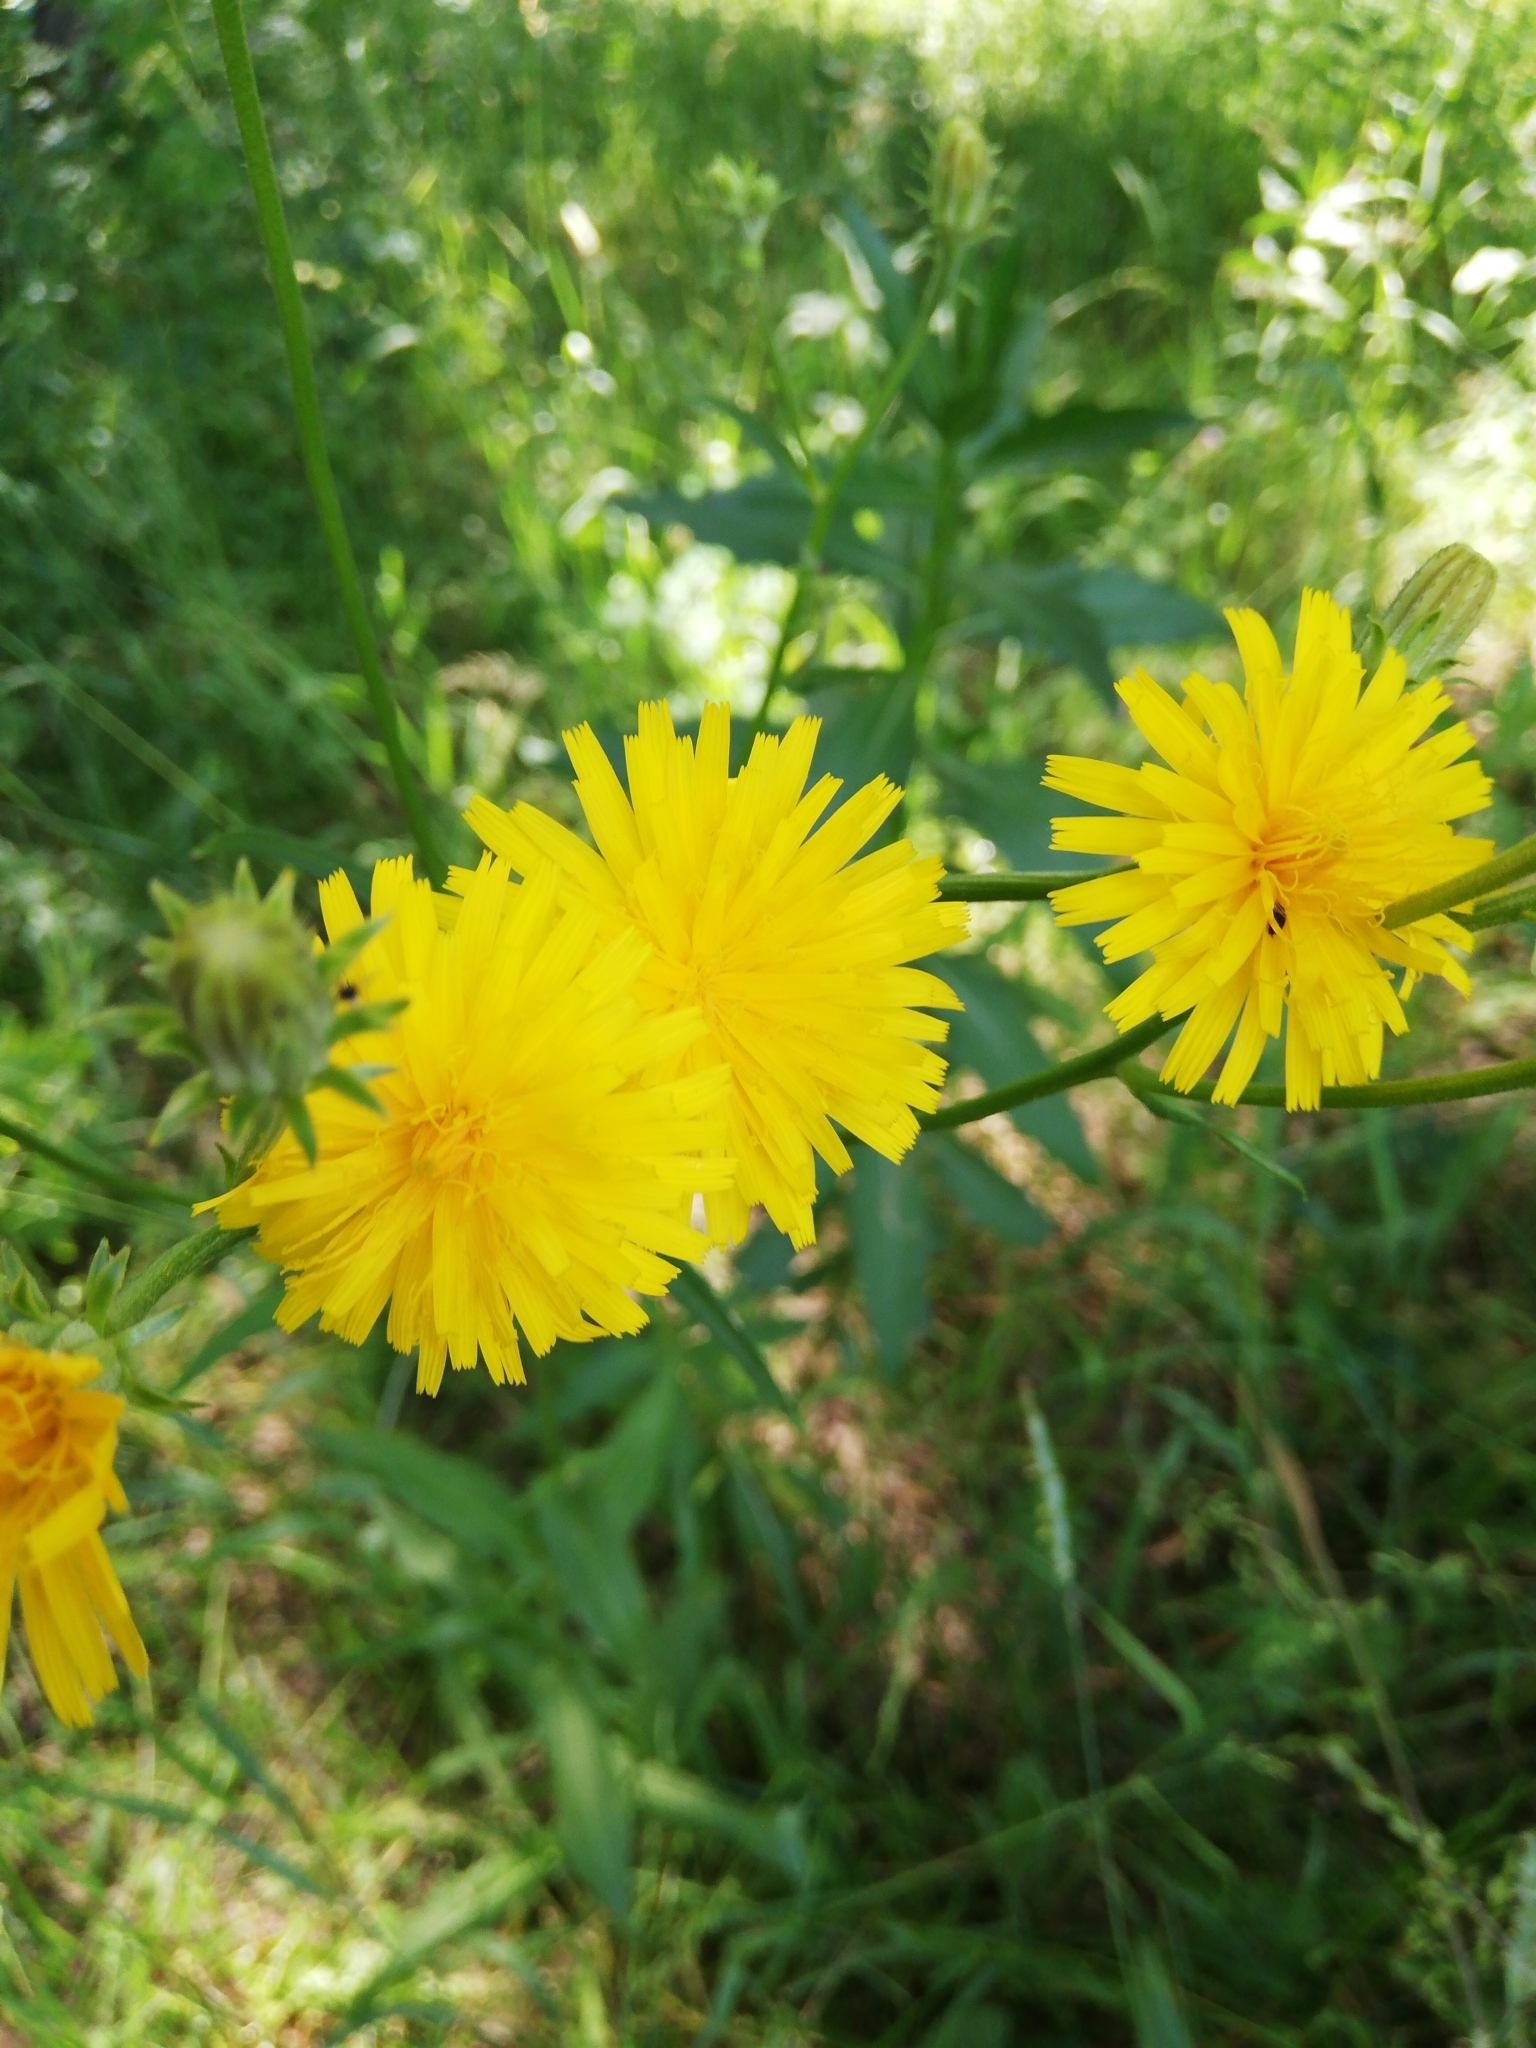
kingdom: Plantae
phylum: Tracheophyta
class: Magnoliopsida
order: Asterales
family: Asteraceae
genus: Picris
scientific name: Picris hieracioides
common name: Hawkweed oxtongue
